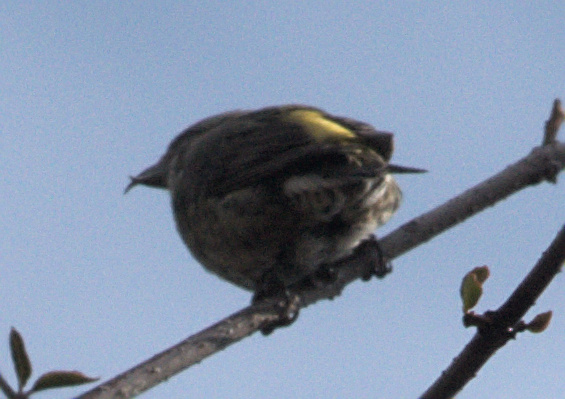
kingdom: Animalia
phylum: Chordata
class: Aves
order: Passeriformes
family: Fringillidae
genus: Loxia
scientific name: Loxia curvirostra
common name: Red crossbill
